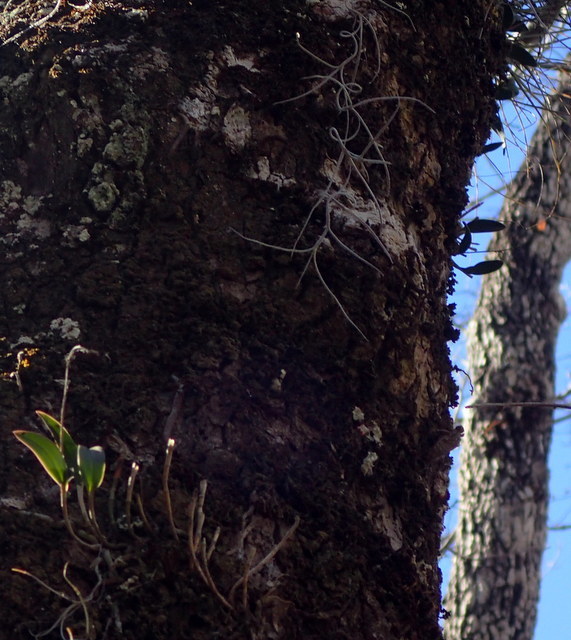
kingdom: Plantae
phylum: Tracheophyta
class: Liliopsida
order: Asparagales
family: Orchidaceae
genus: Epidendrum
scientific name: Epidendrum conopseum
